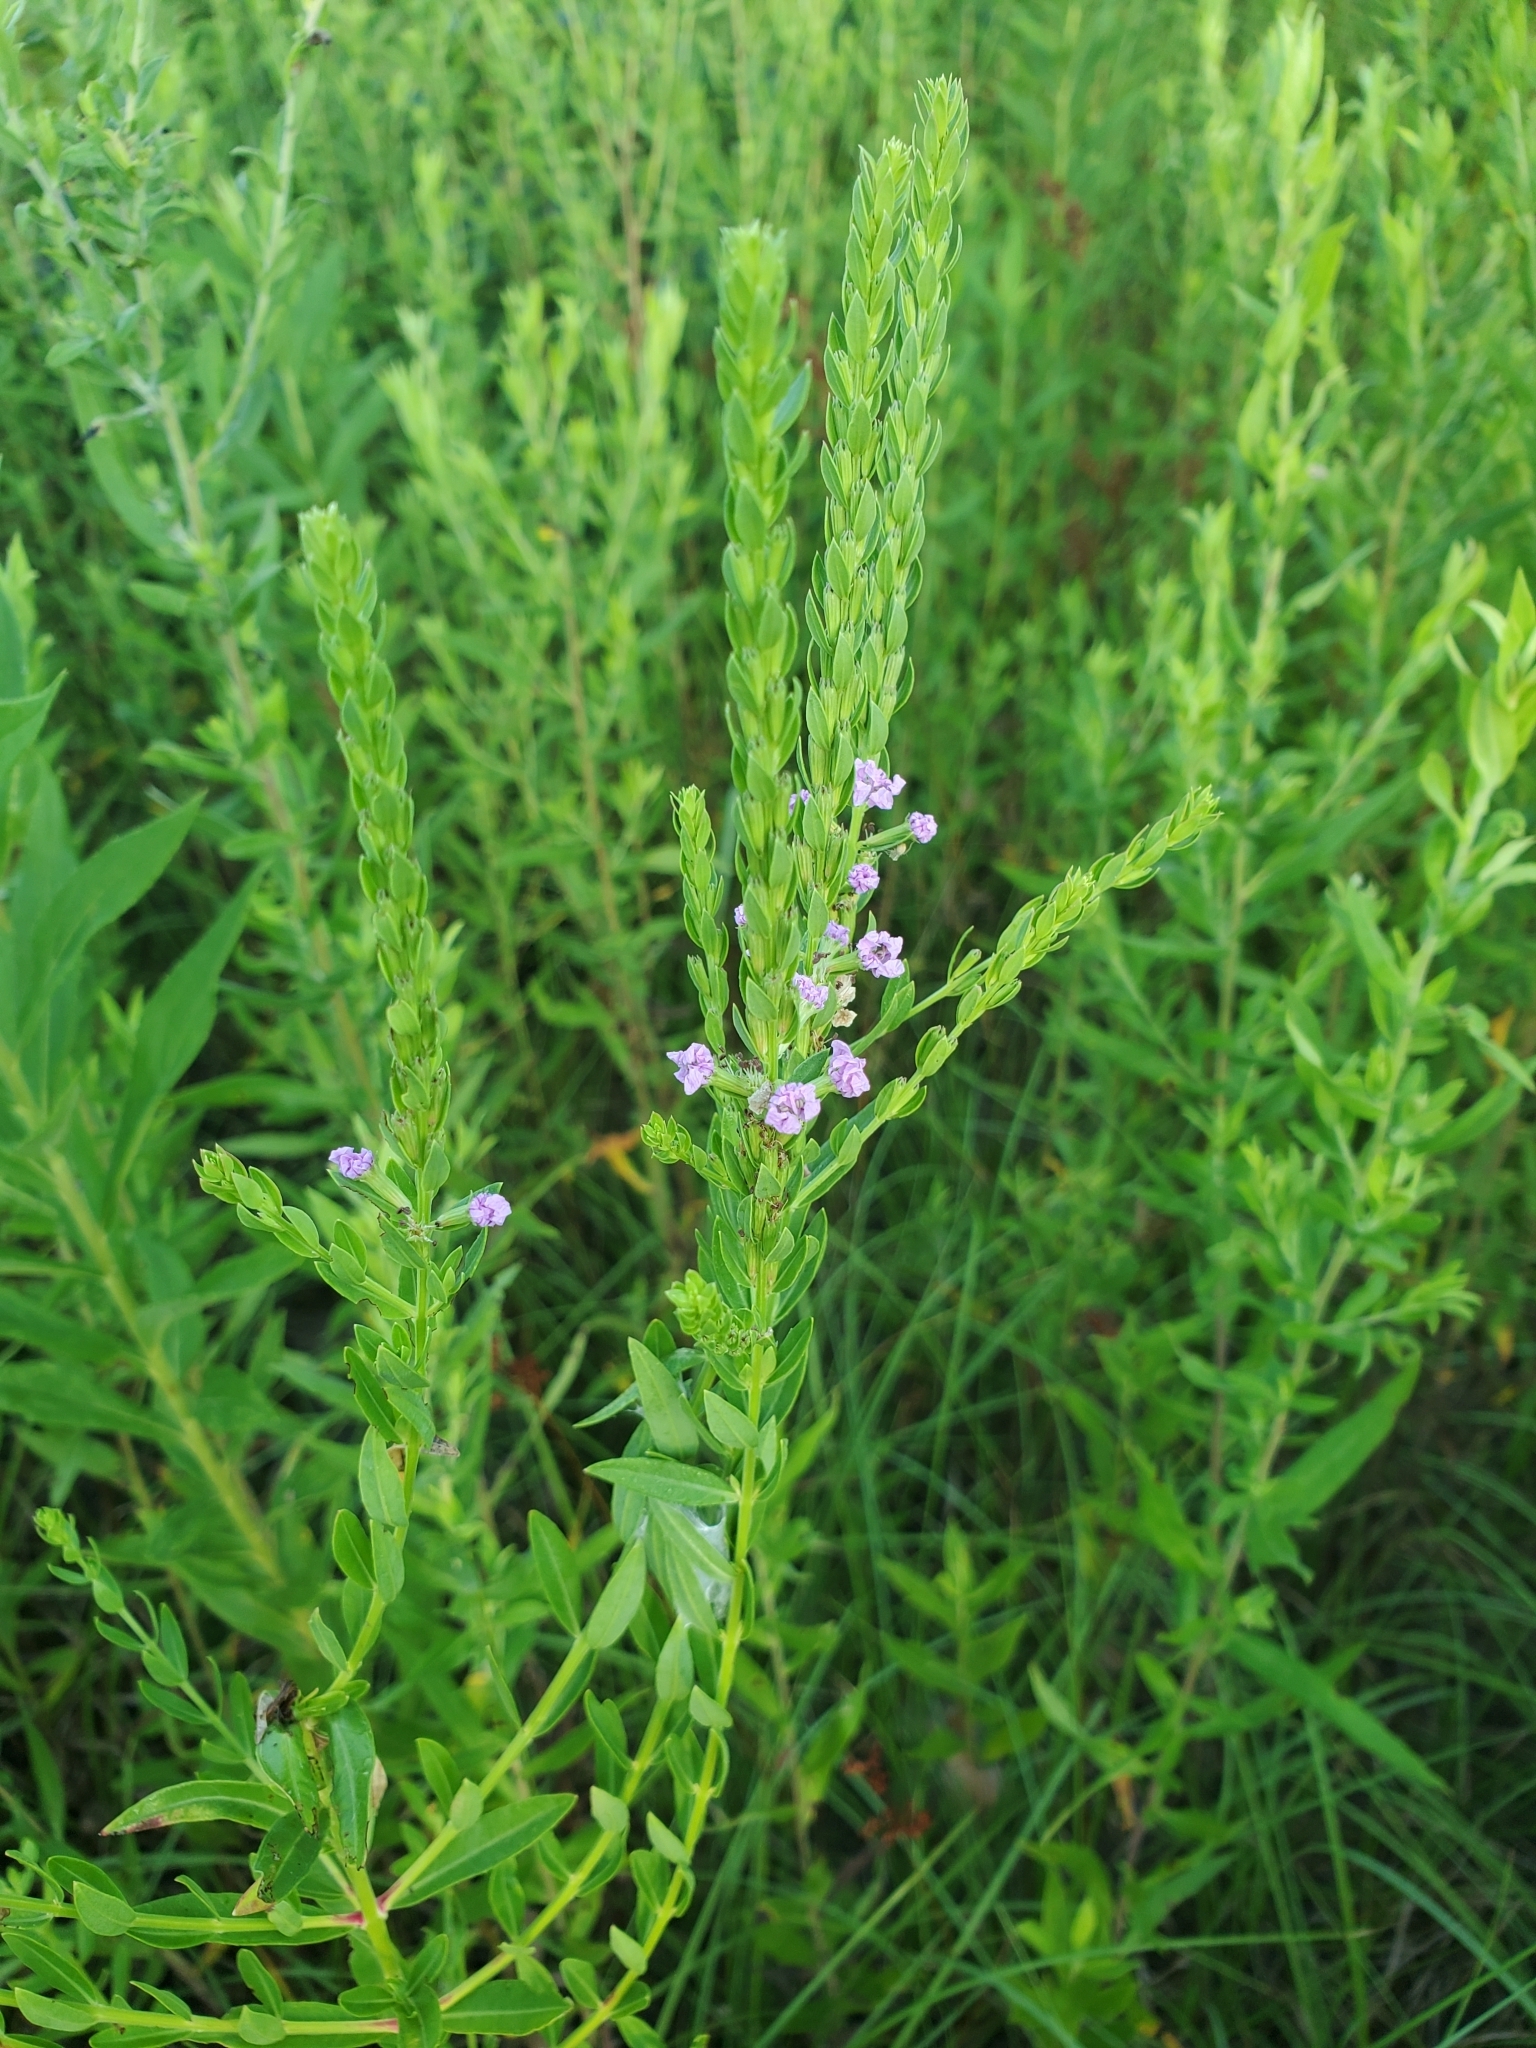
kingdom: Plantae
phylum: Tracheophyta
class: Magnoliopsida
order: Myrtales
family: Lythraceae
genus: Lythrum
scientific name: Lythrum alatum
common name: Winged loosestrife
